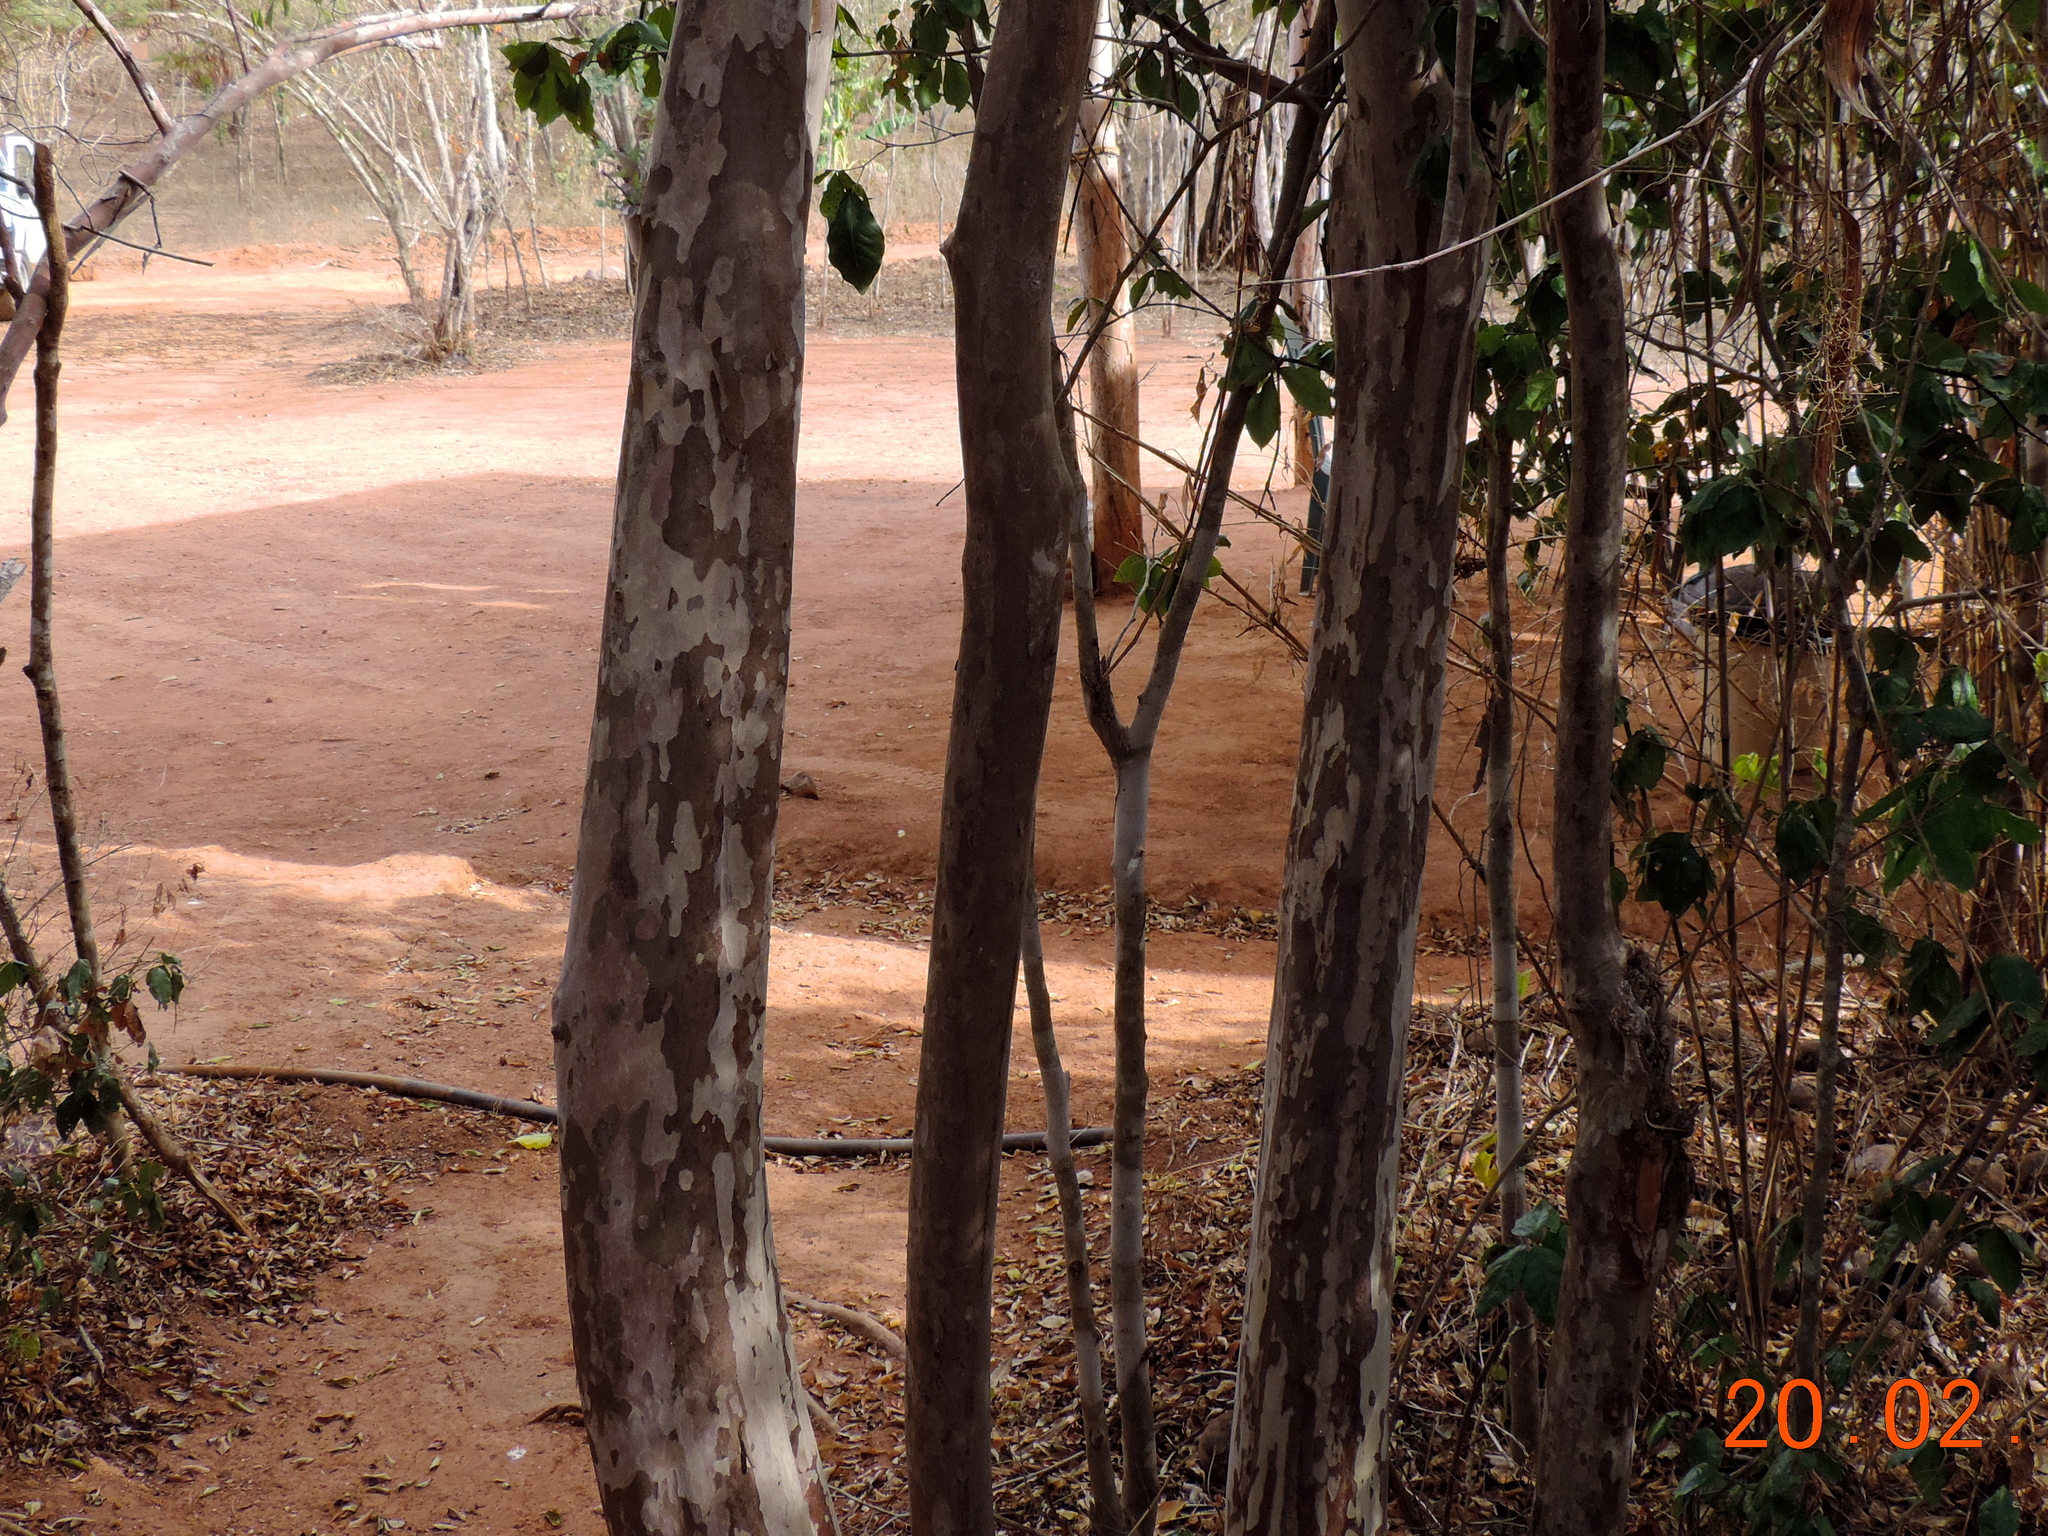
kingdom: Plantae
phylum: Tracheophyta
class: Magnoliopsida
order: Myrtales
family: Myrtaceae
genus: Psidium
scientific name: Psidium sartorianum
